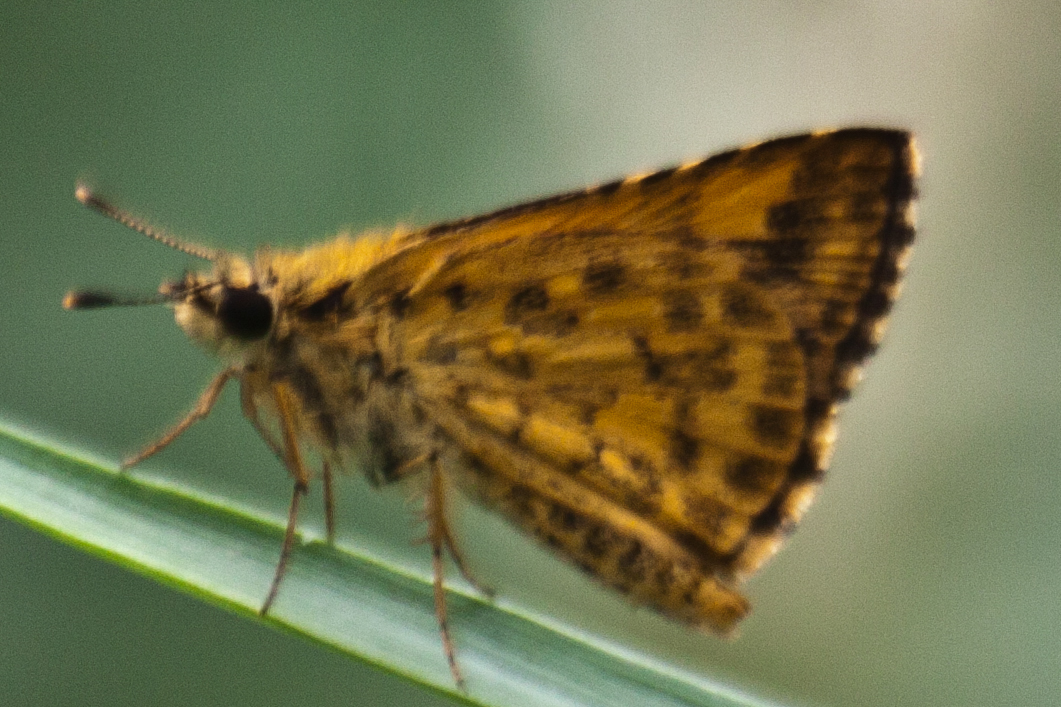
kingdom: Animalia
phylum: Arthropoda
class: Insecta
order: Lepidoptera
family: Hesperiidae
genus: Ampittia
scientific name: Ampittia dioscorides
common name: Common bush hopper
